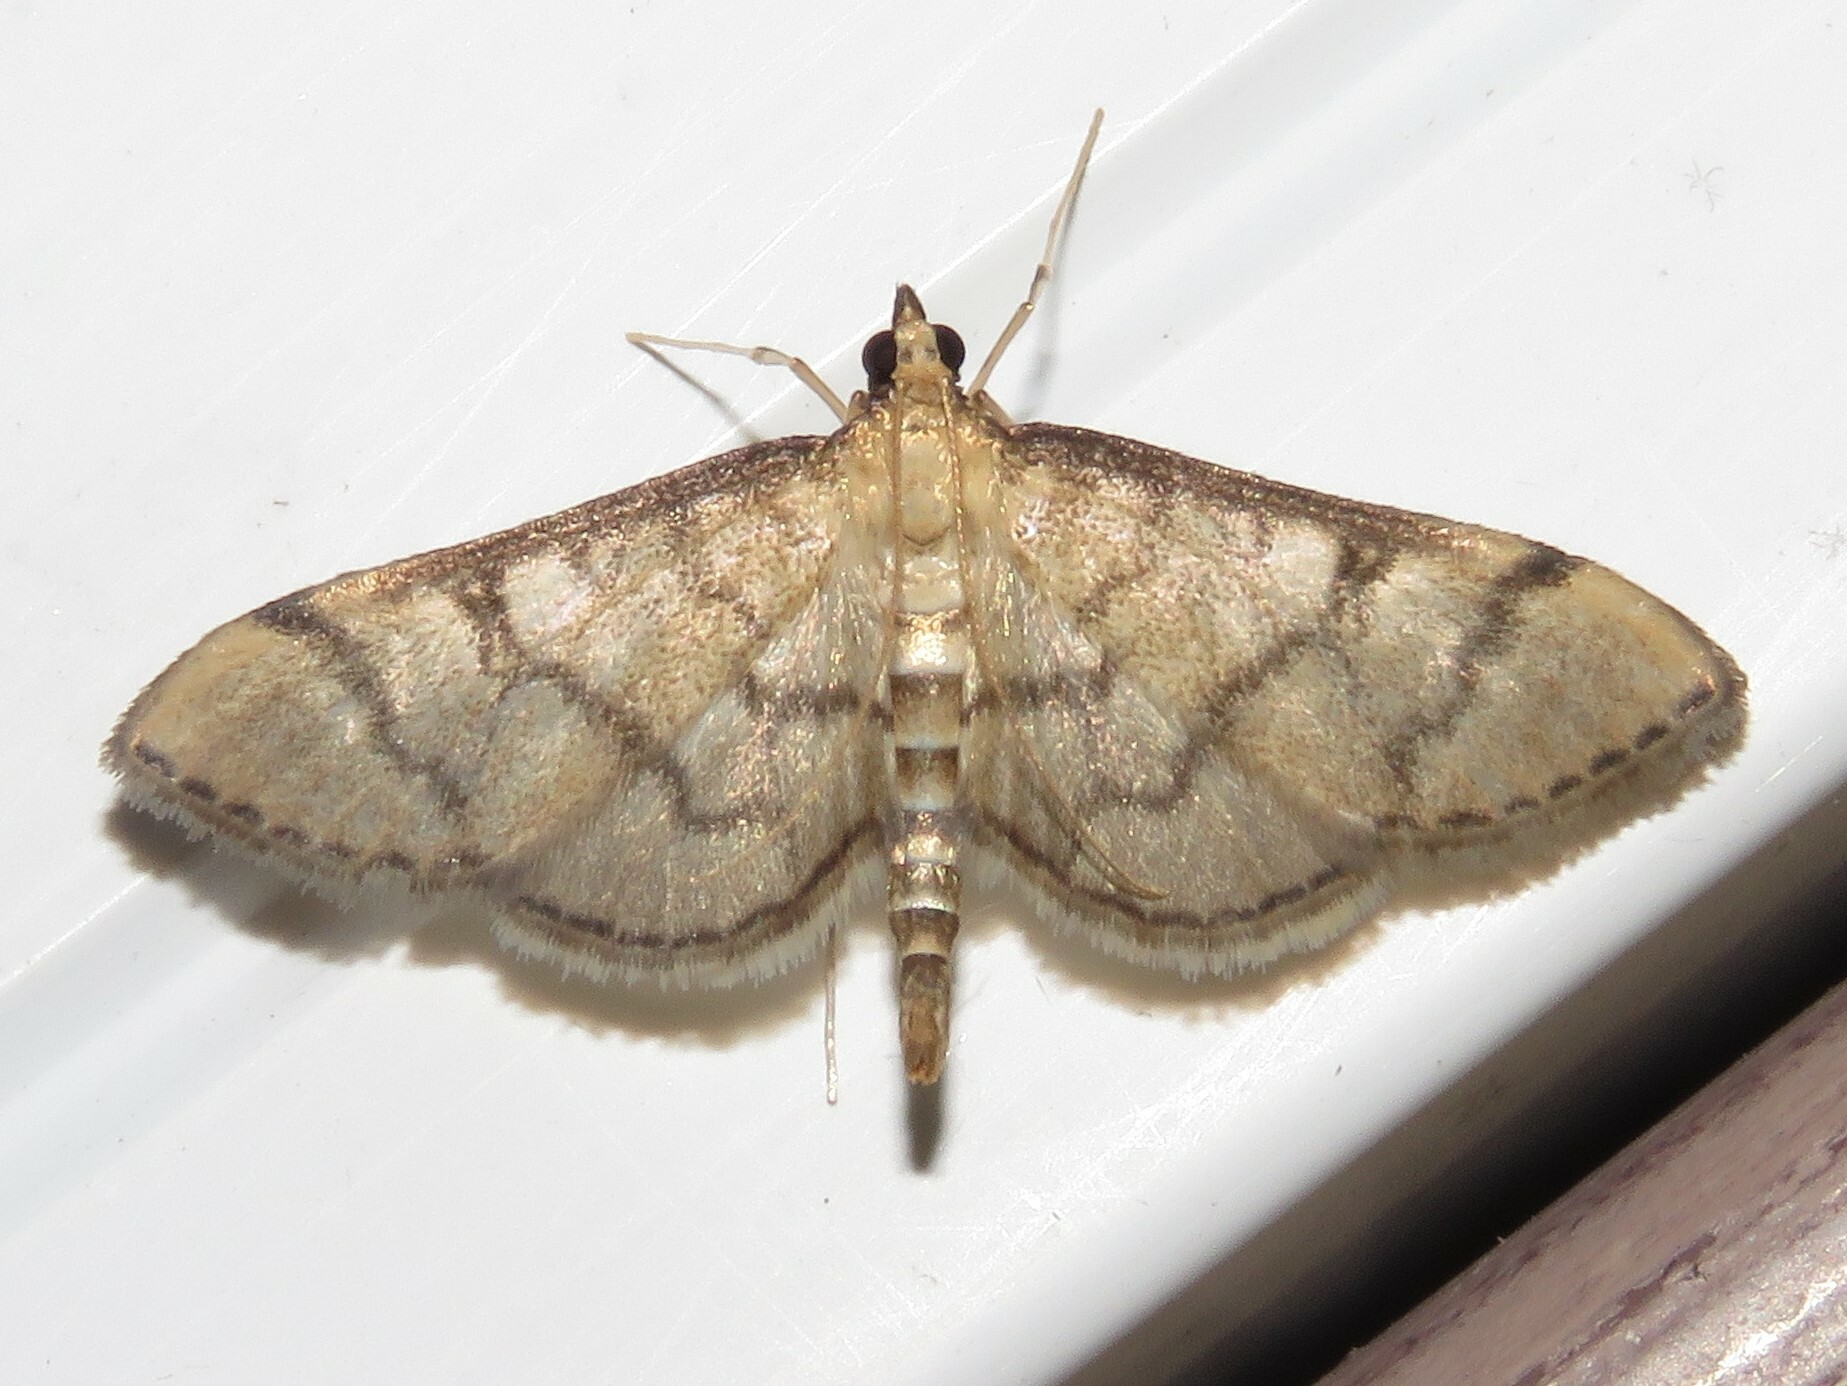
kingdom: Animalia
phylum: Arthropoda
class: Insecta
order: Lepidoptera
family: Crambidae
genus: Lamprosema
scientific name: Lamprosema Blepharomastix ranalis
